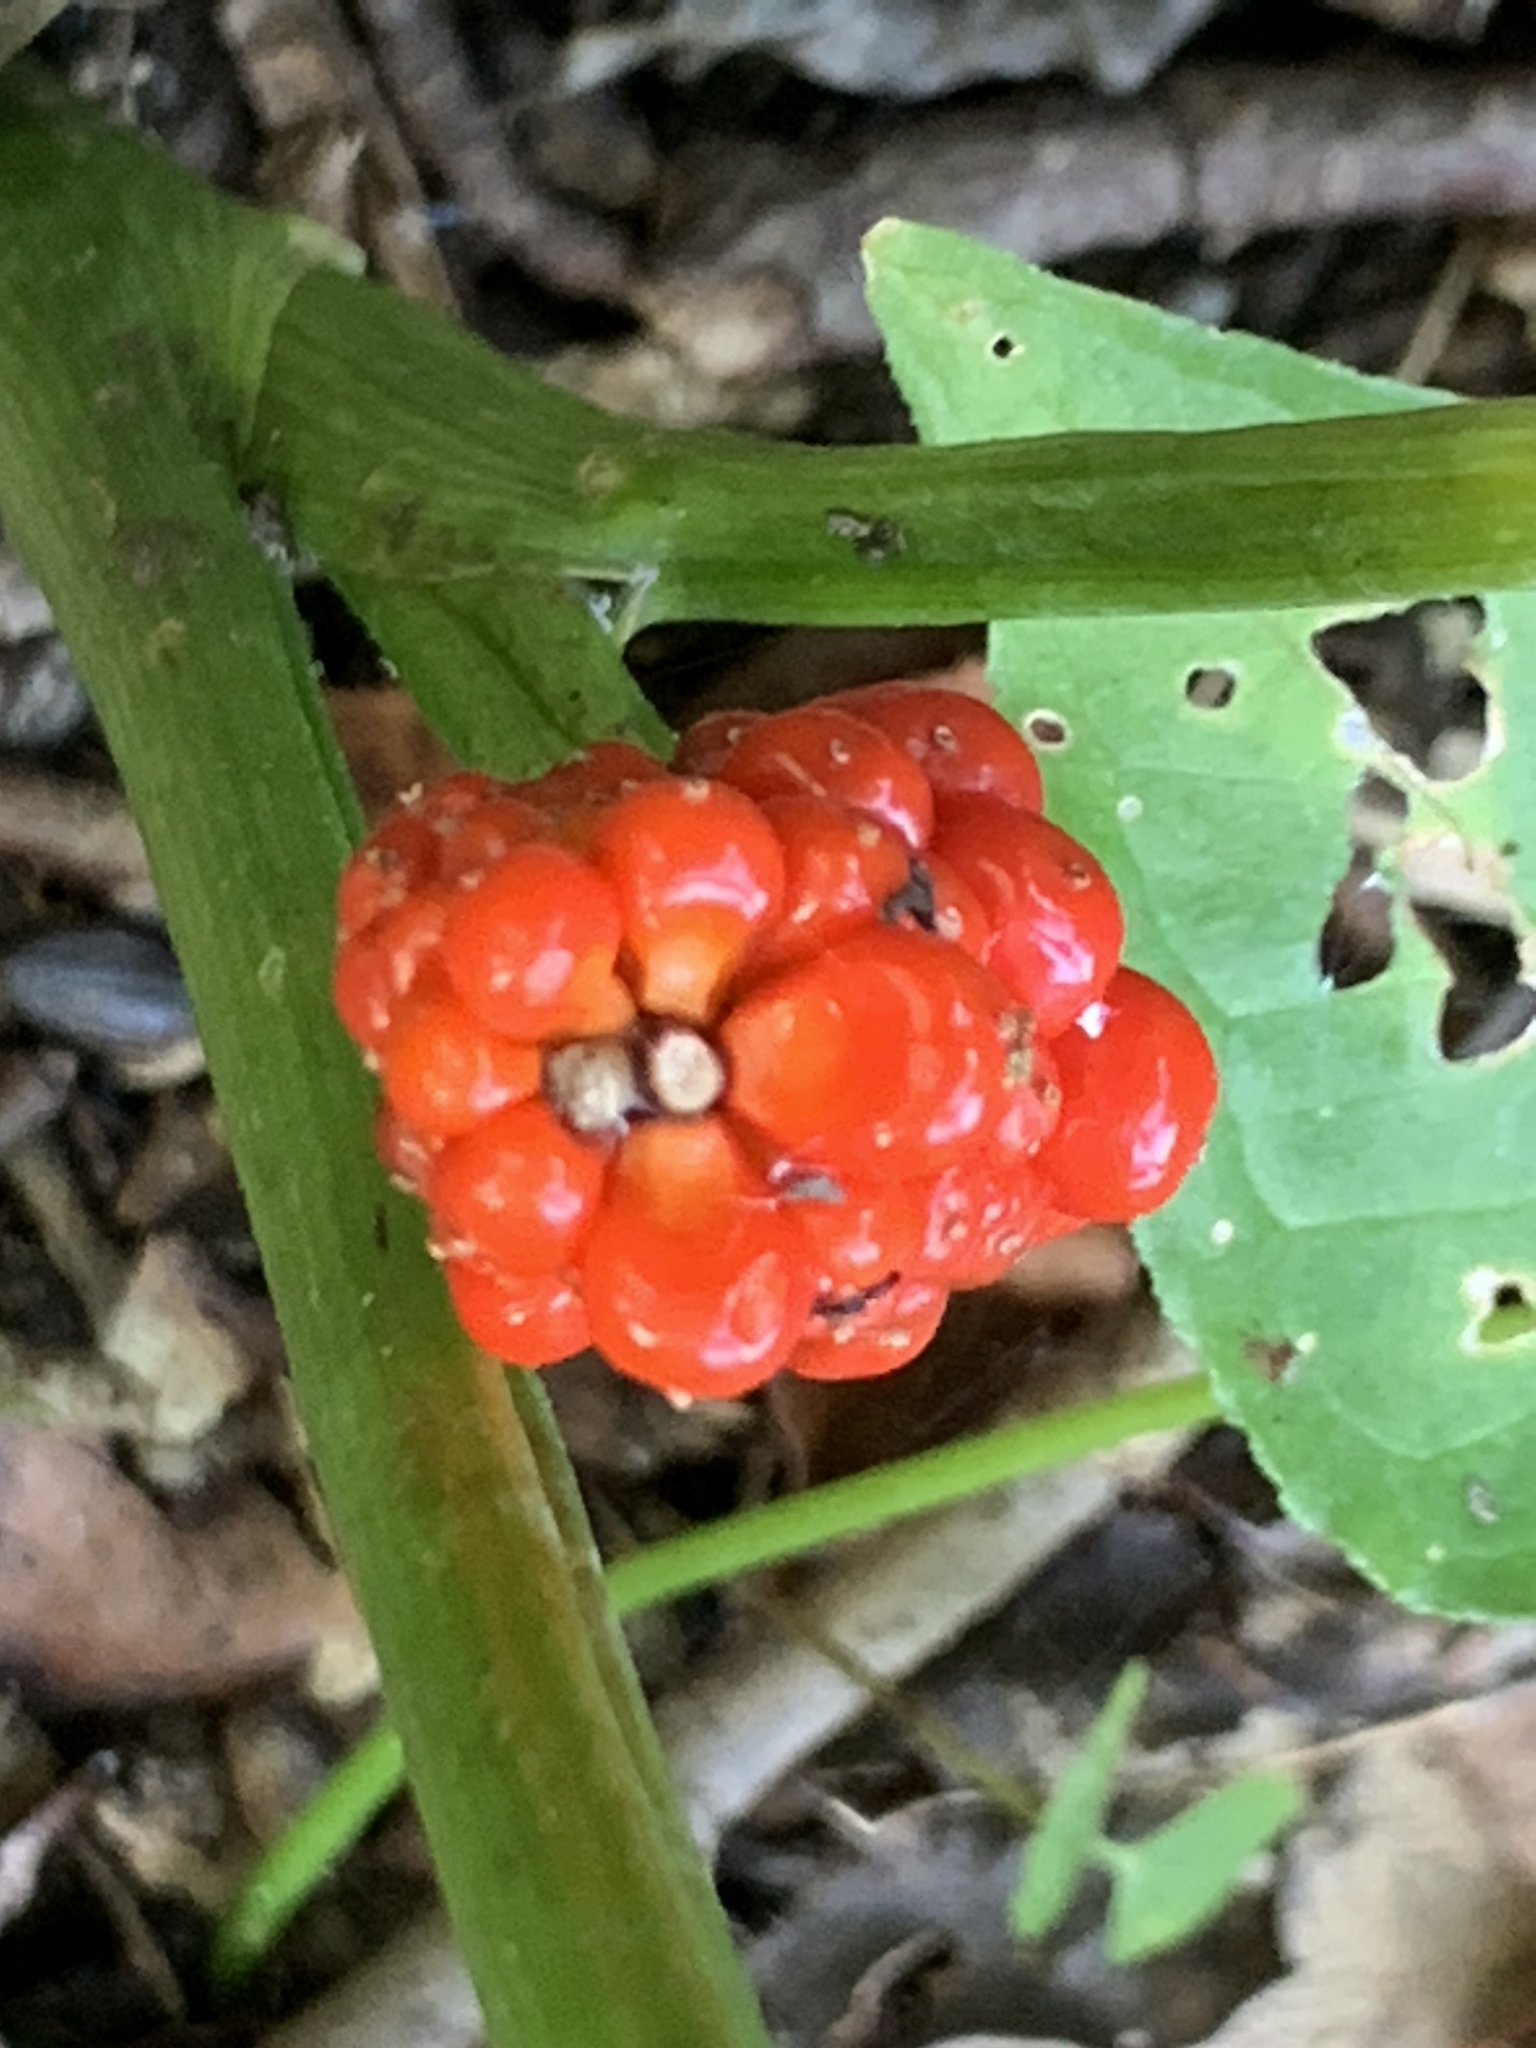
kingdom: Plantae
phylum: Tracheophyta
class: Liliopsida
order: Alismatales
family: Araceae
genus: Arisaema
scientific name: Arisaema triphyllum
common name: Jack-in-the-pulpit
